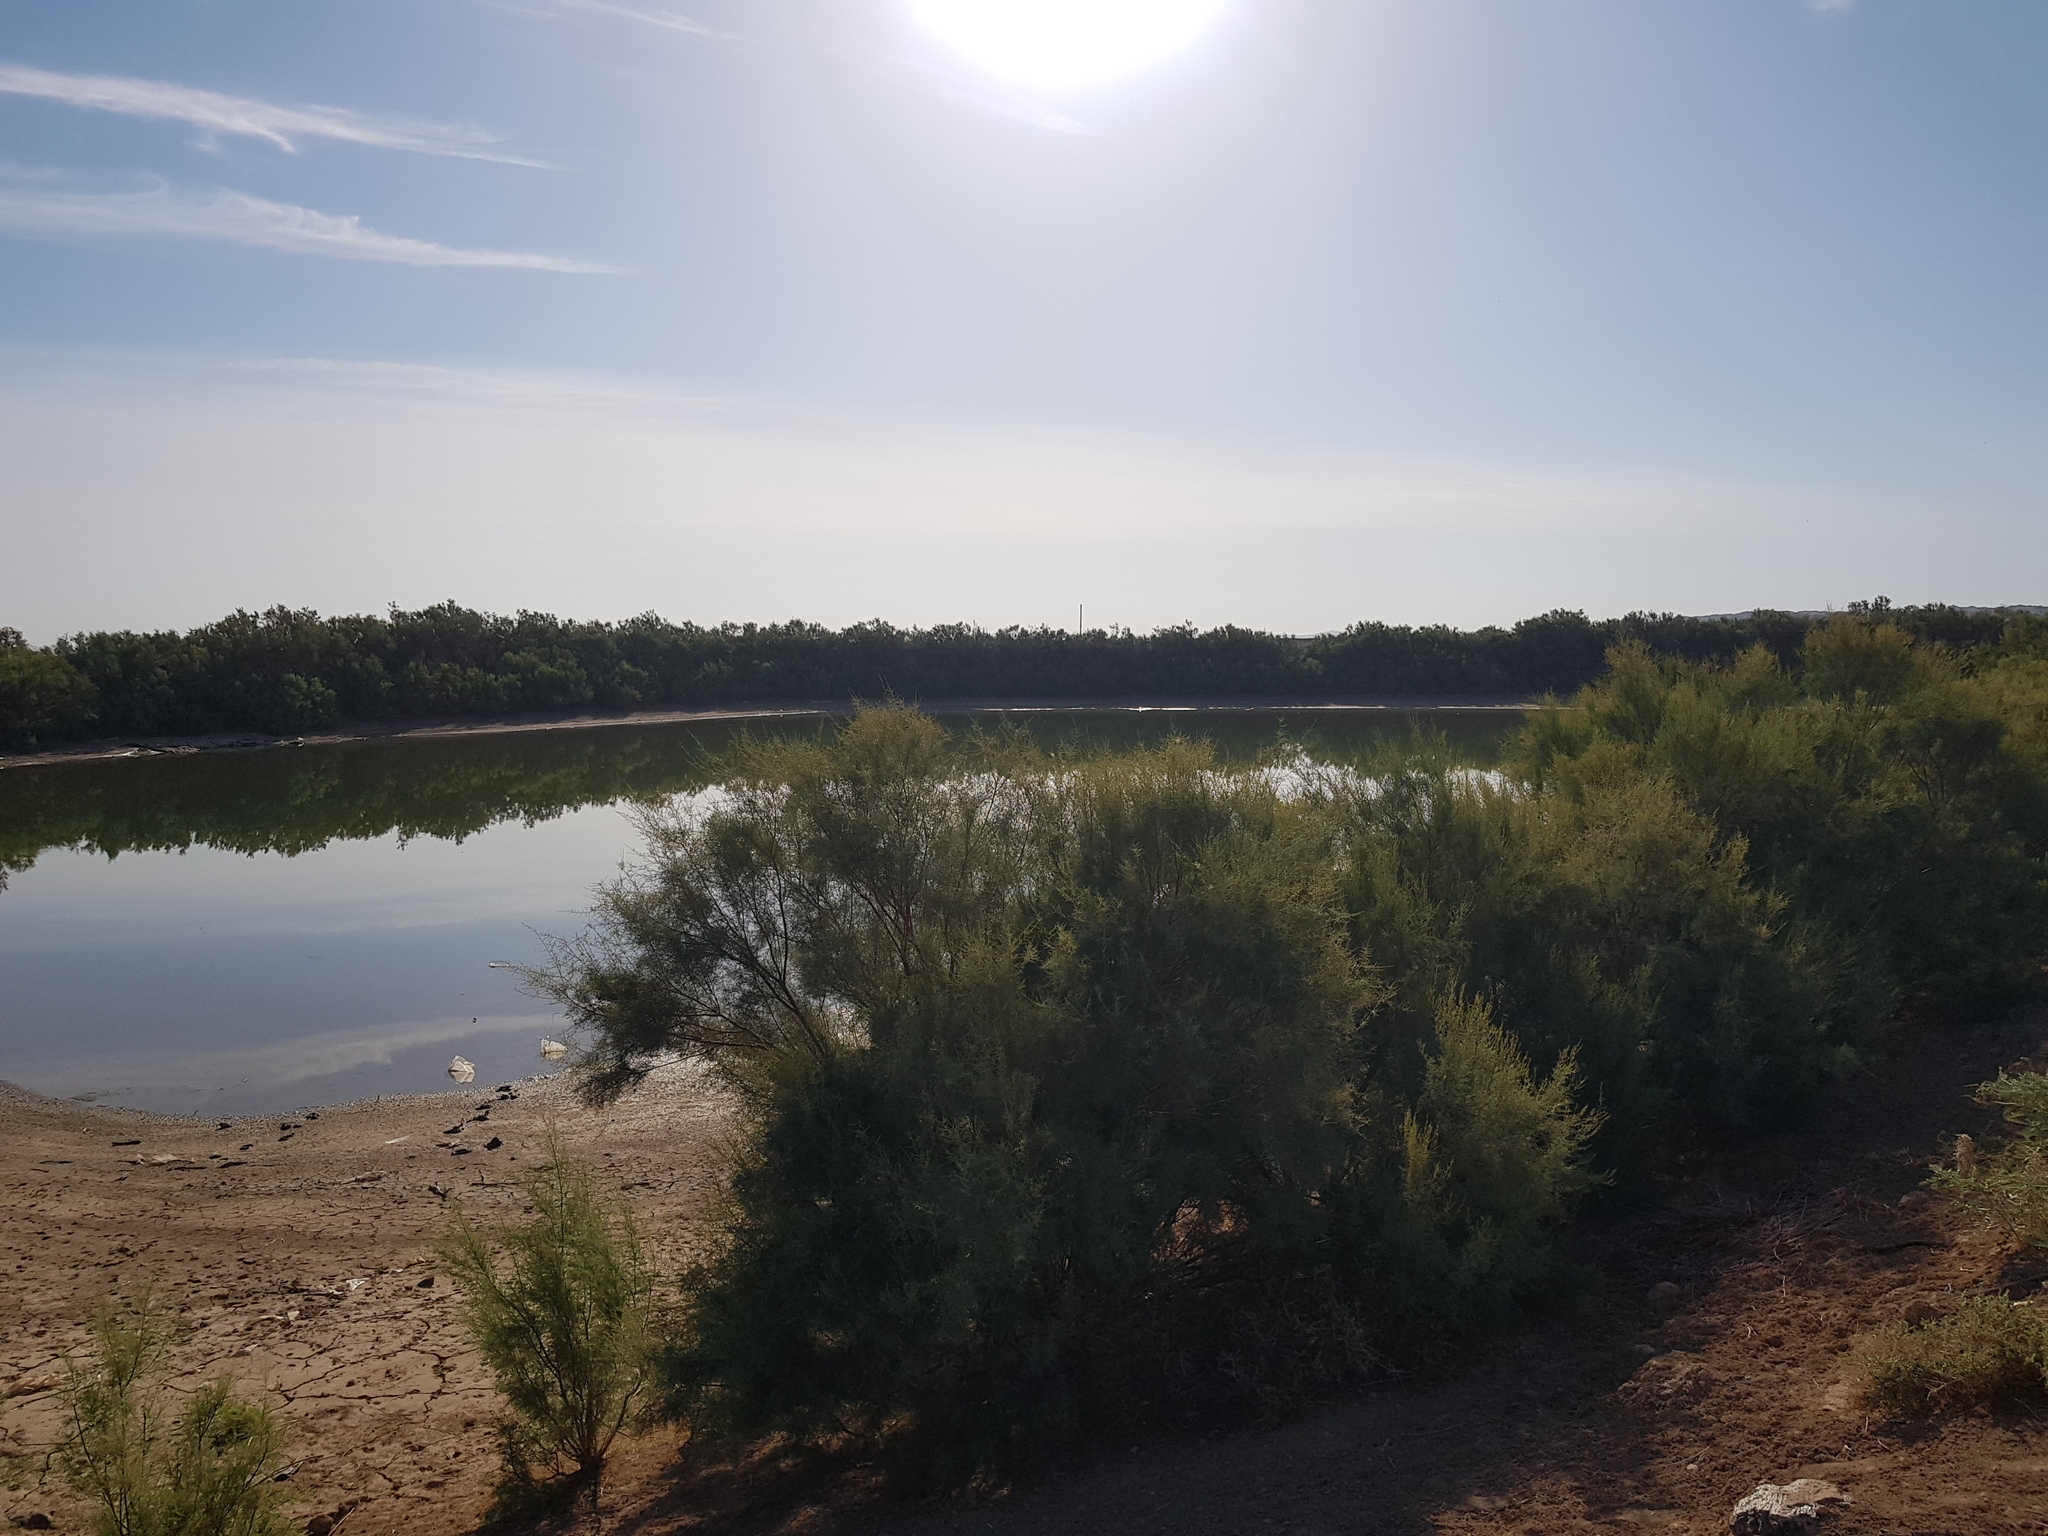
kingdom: Plantae
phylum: Tracheophyta
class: Magnoliopsida
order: Malpighiales
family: Salicaceae
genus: Populus
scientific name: Populus euphratica
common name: Euphrates poplar
